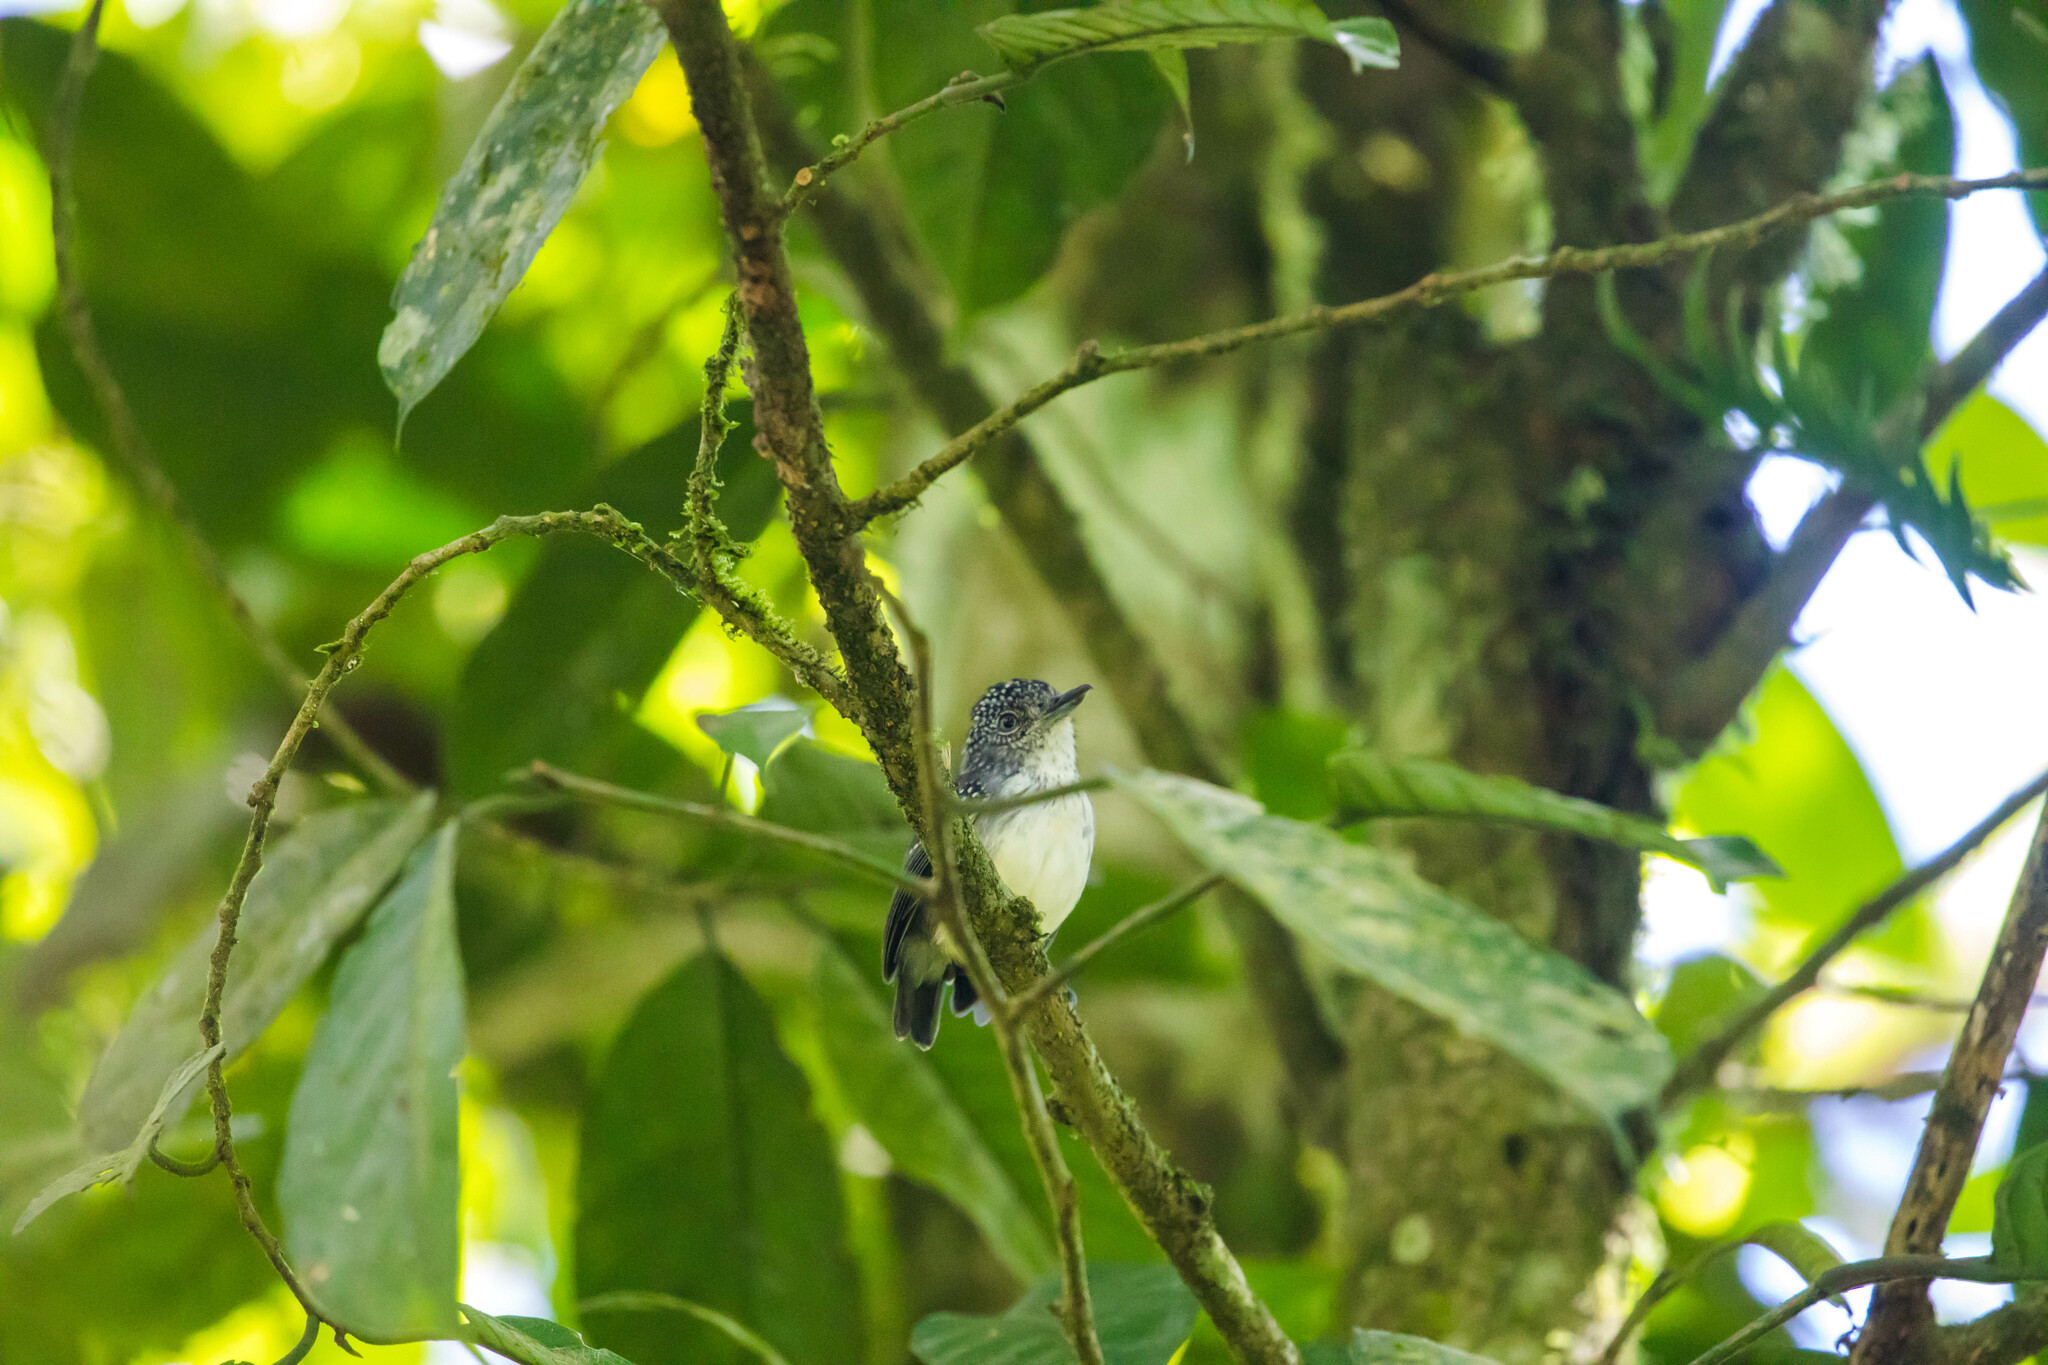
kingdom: Animalia
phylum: Chordata
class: Aves
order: Passeriformes
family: Thamnophilidae
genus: Dysithamnus
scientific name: Dysithamnus puncticeps
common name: Spot-crowned antvireo
